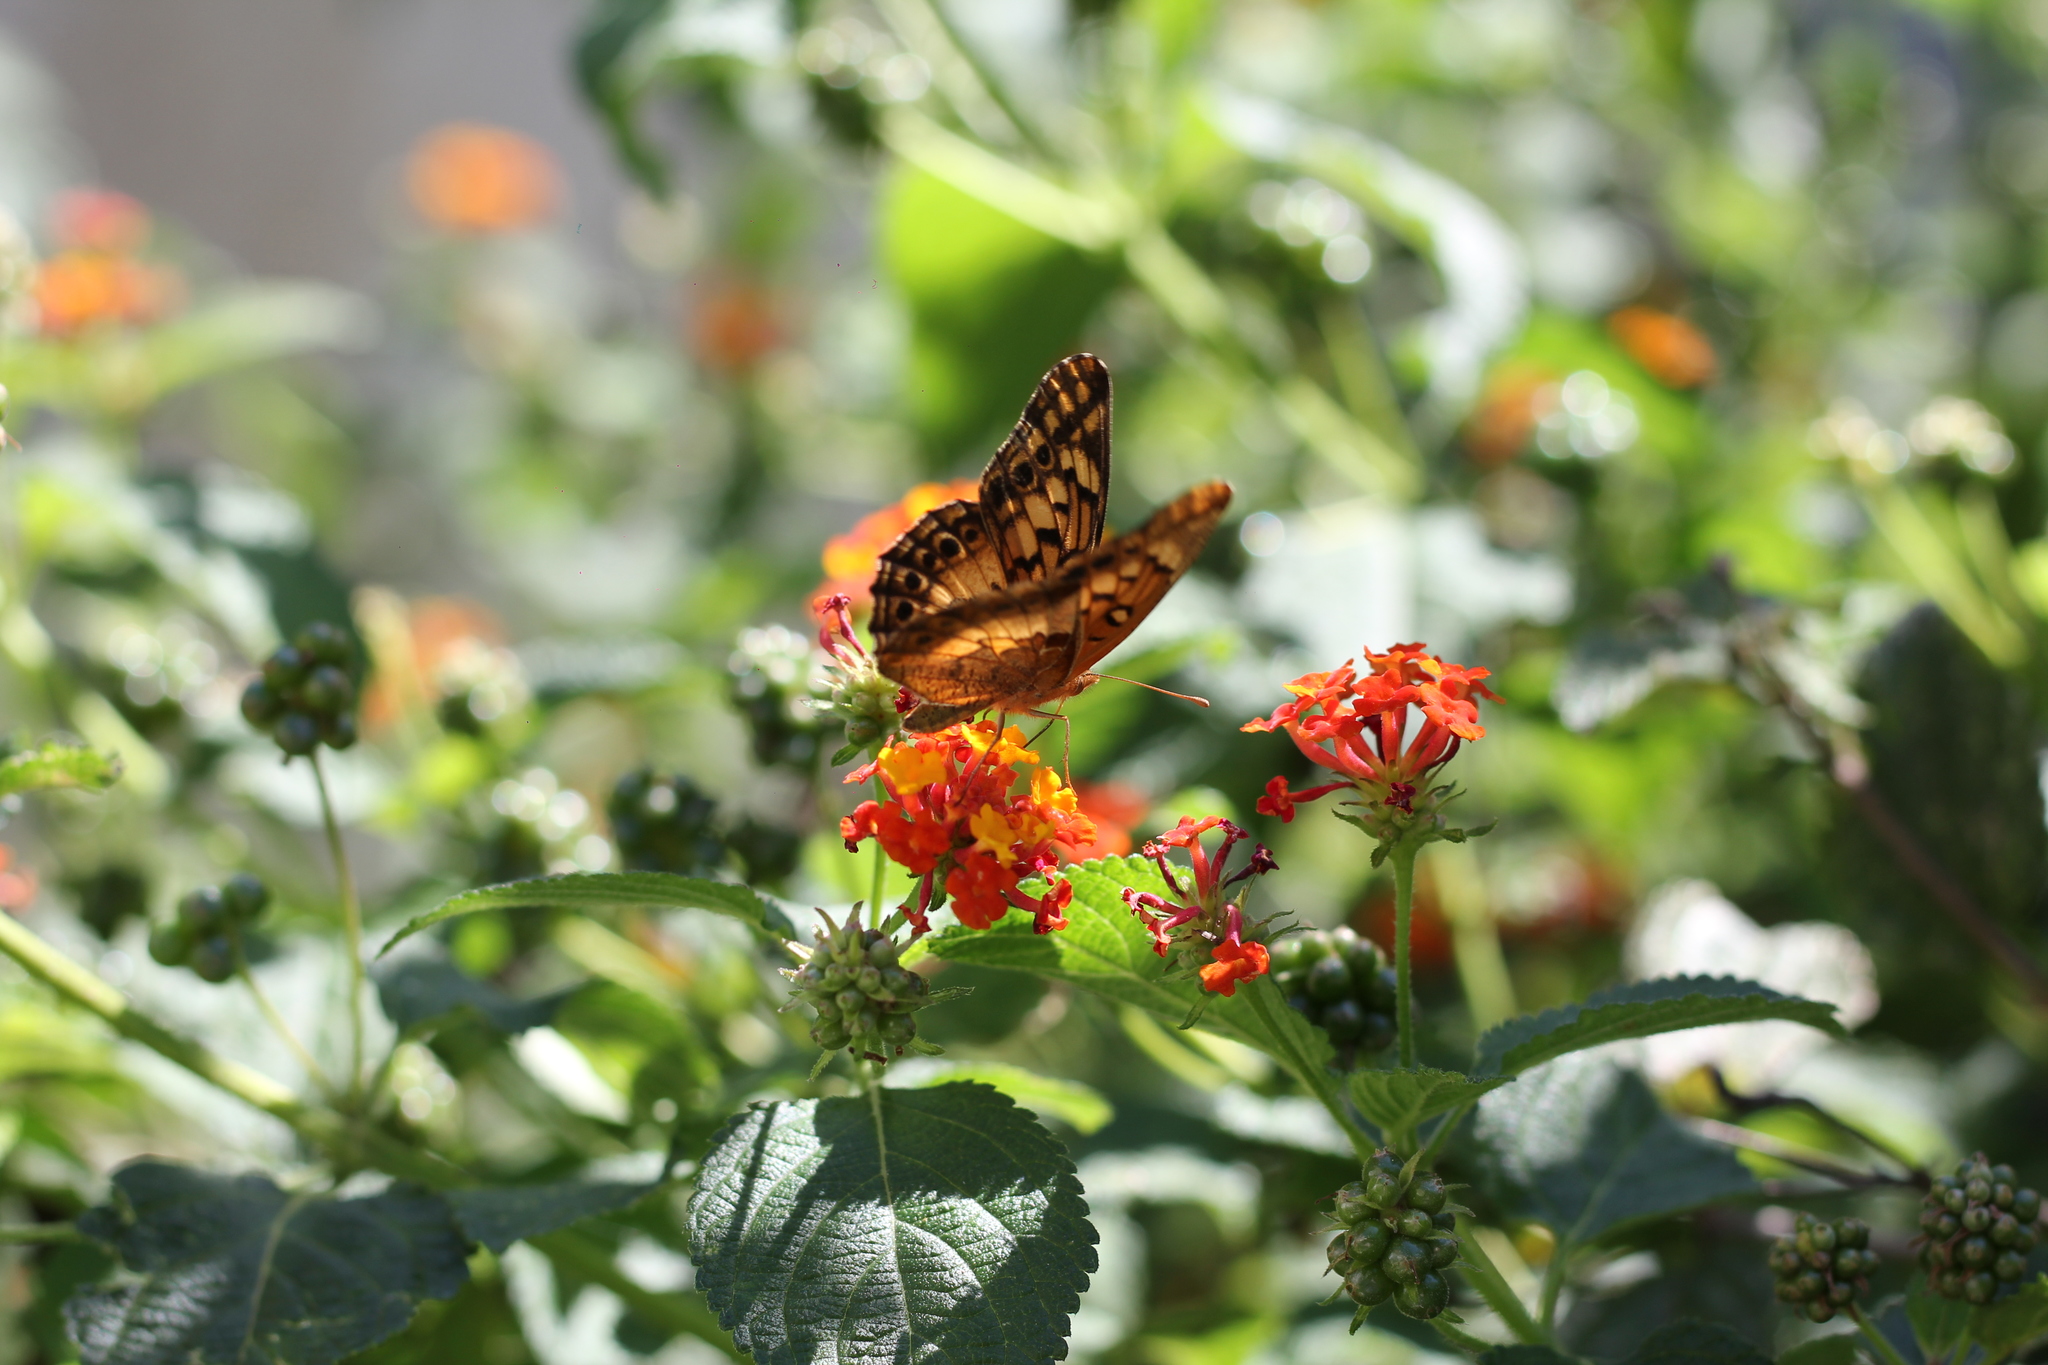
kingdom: Animalia
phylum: Arthropoda
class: Insecta
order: Lepidoptera
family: Nymphalidae
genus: Euptoieta
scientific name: Euptoieta hortensia
